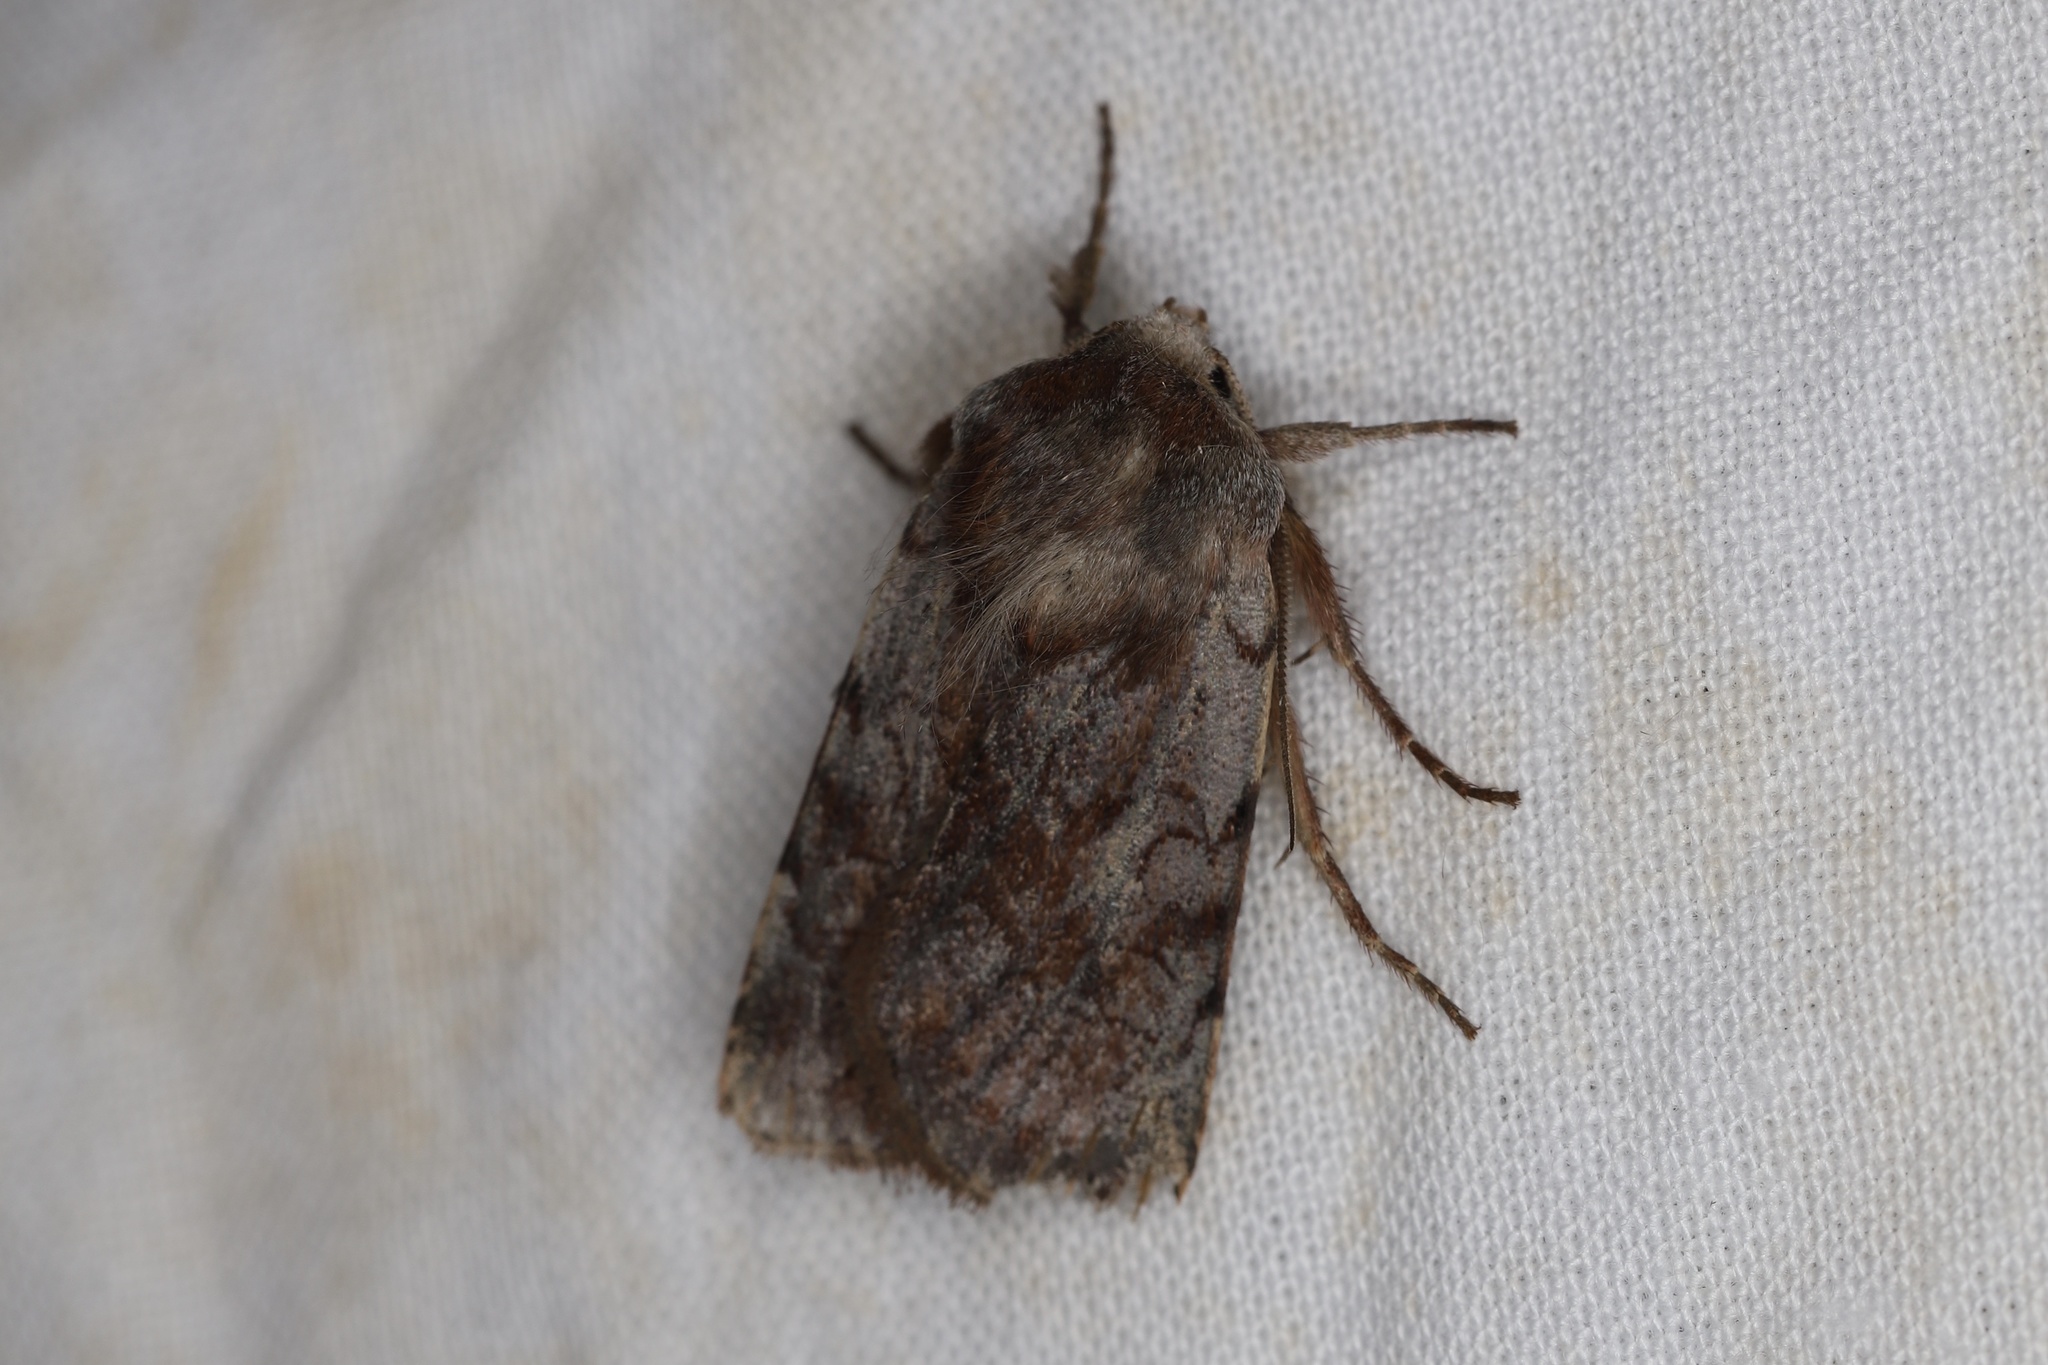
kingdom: Animalia
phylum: Arthropoda
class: Insecta
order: Lepidoptera
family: Noctuidae
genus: Cerastis
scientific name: Cerastis rubricosa
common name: Red chestnut
